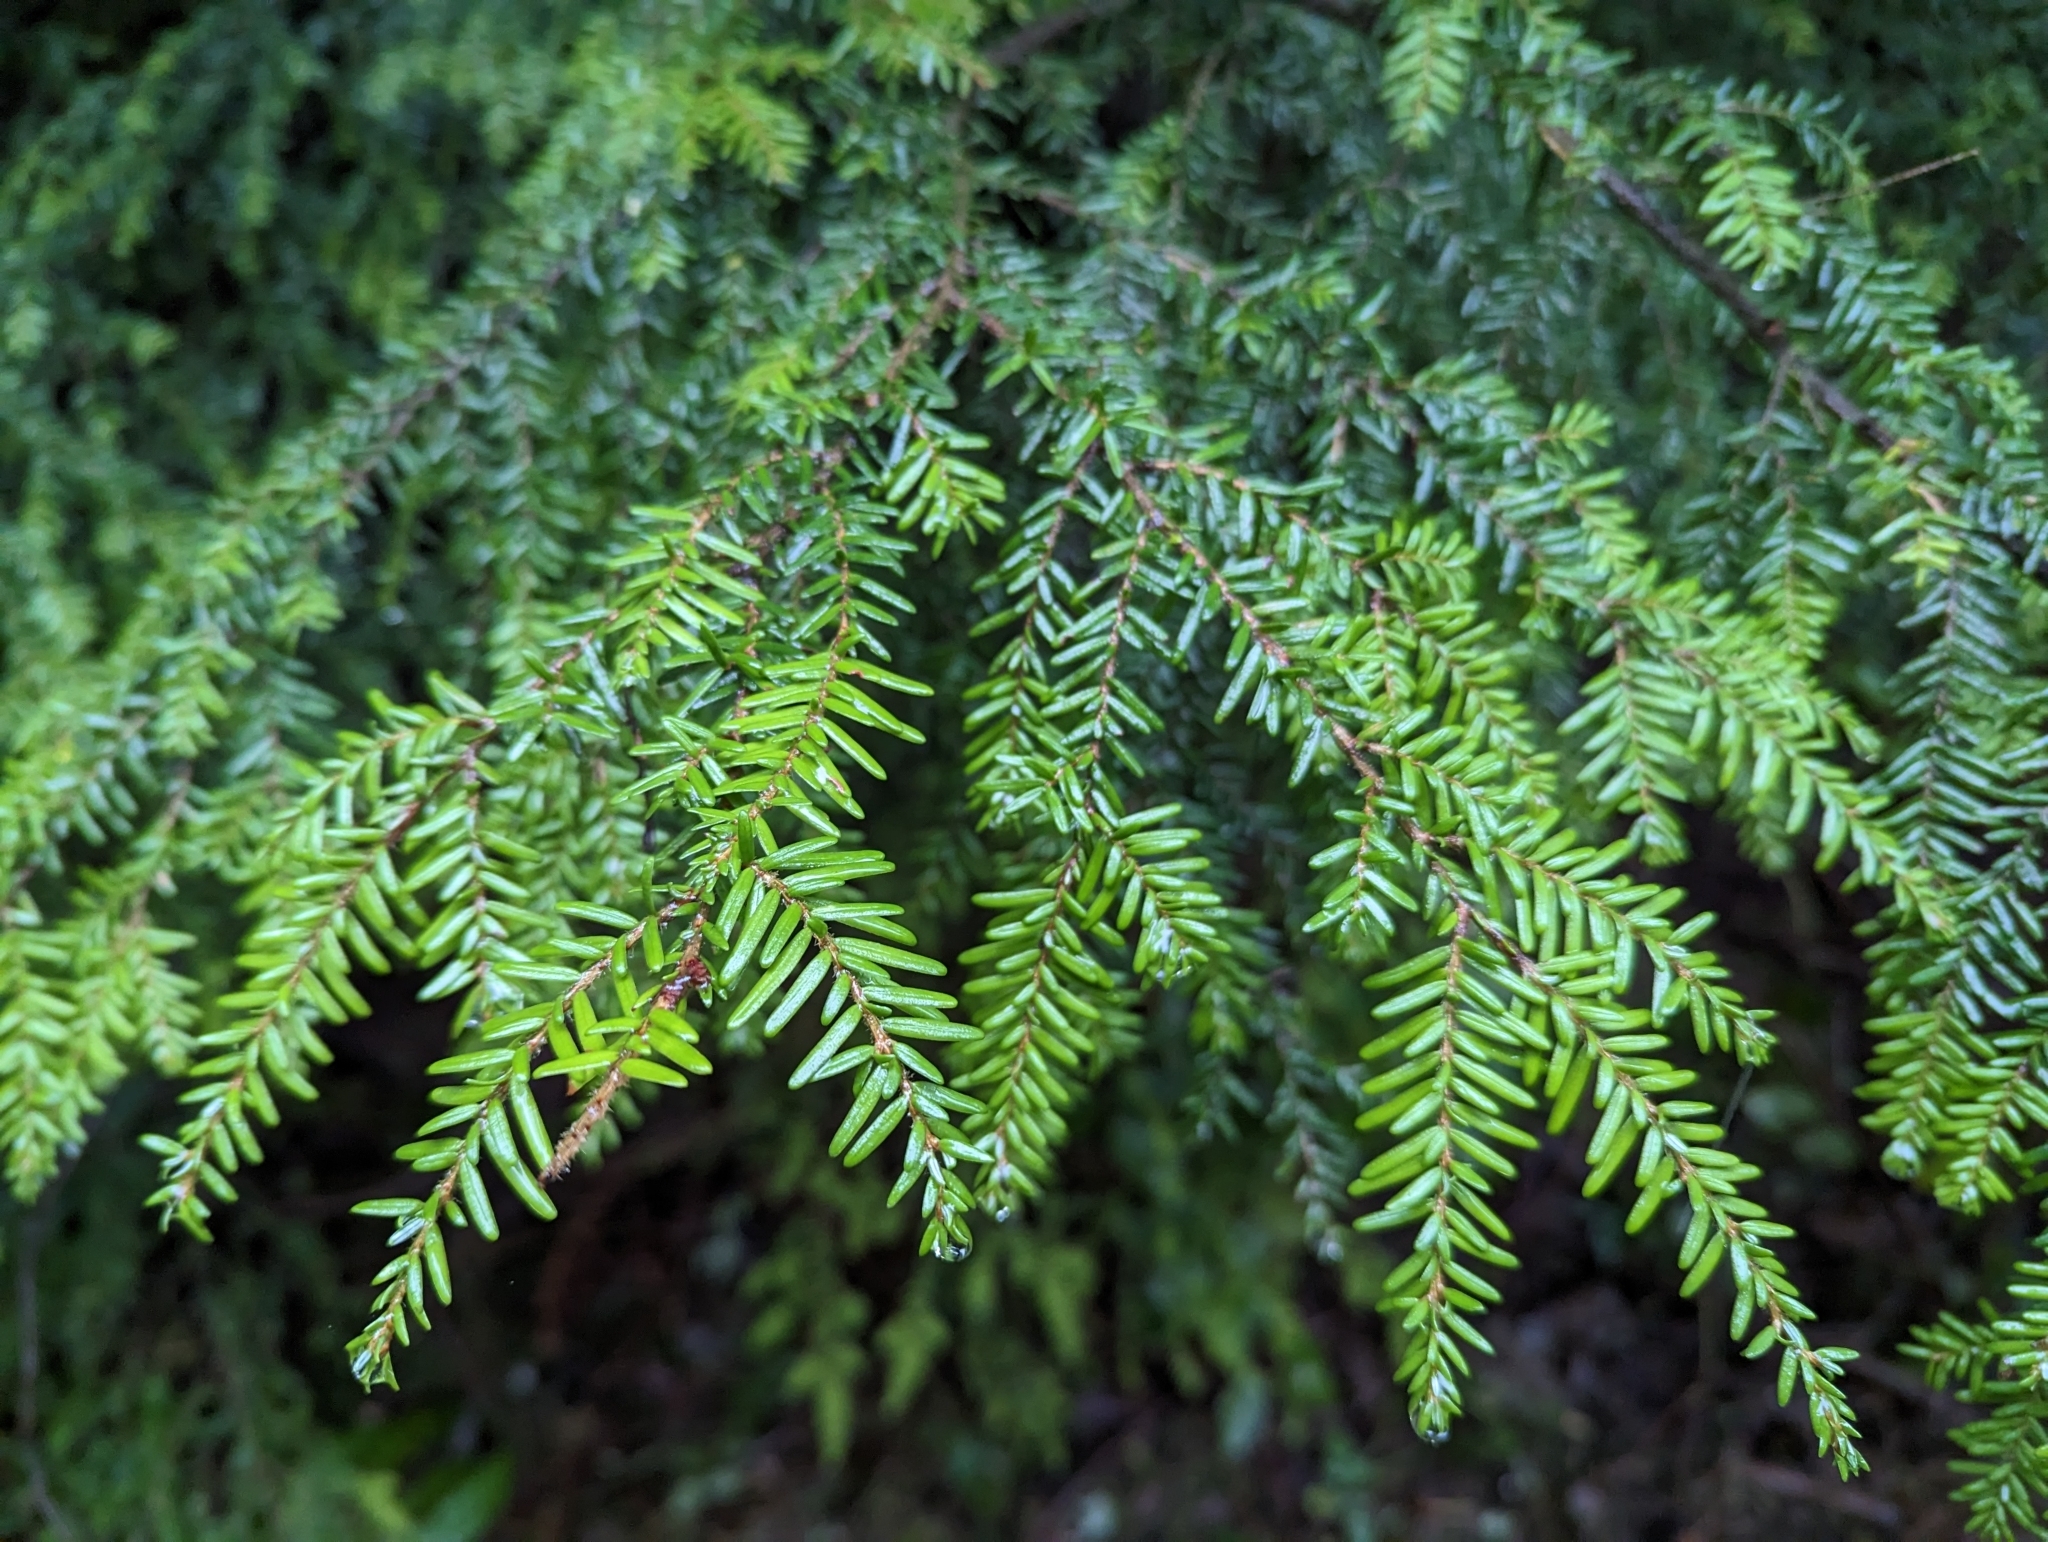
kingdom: Plantae
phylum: Tracheophyta
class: Pinopsida
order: Pinales
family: Pinaceae
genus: Tsuga
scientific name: Tsuga heterophylla
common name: Western hemlock
